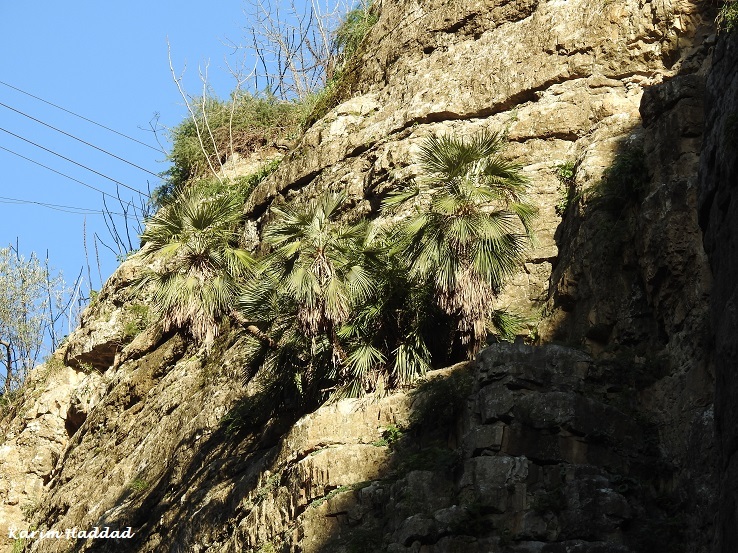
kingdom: Plantae
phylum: Tracheophyta
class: Liliopsida
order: Arecales
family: Arecaceae
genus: Chamaerops
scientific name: Chamaerops humilis
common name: Dwarf fan palm
